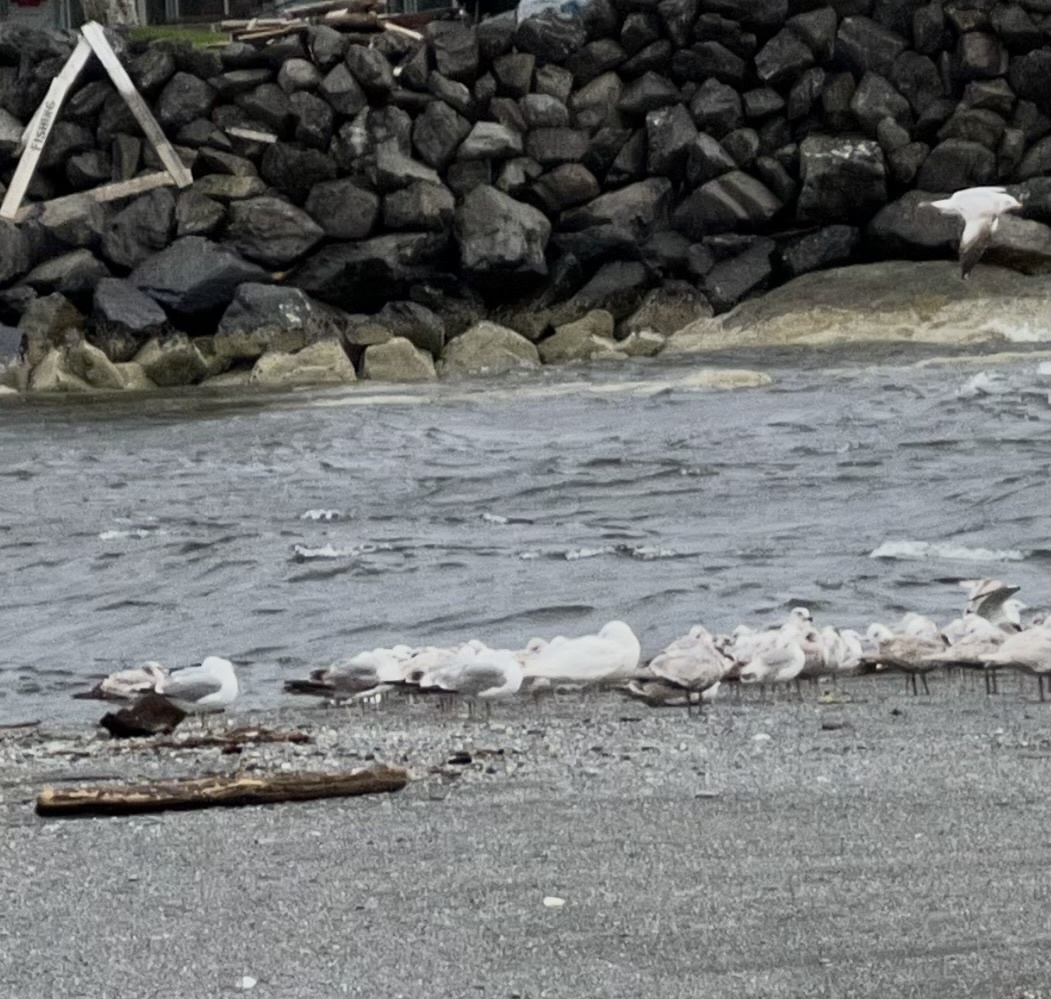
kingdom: Animalia
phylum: Chordata
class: Aves
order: Charadriiformes
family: Laridae
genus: Larus
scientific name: Larus hyperboreus
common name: Glaucous gull
